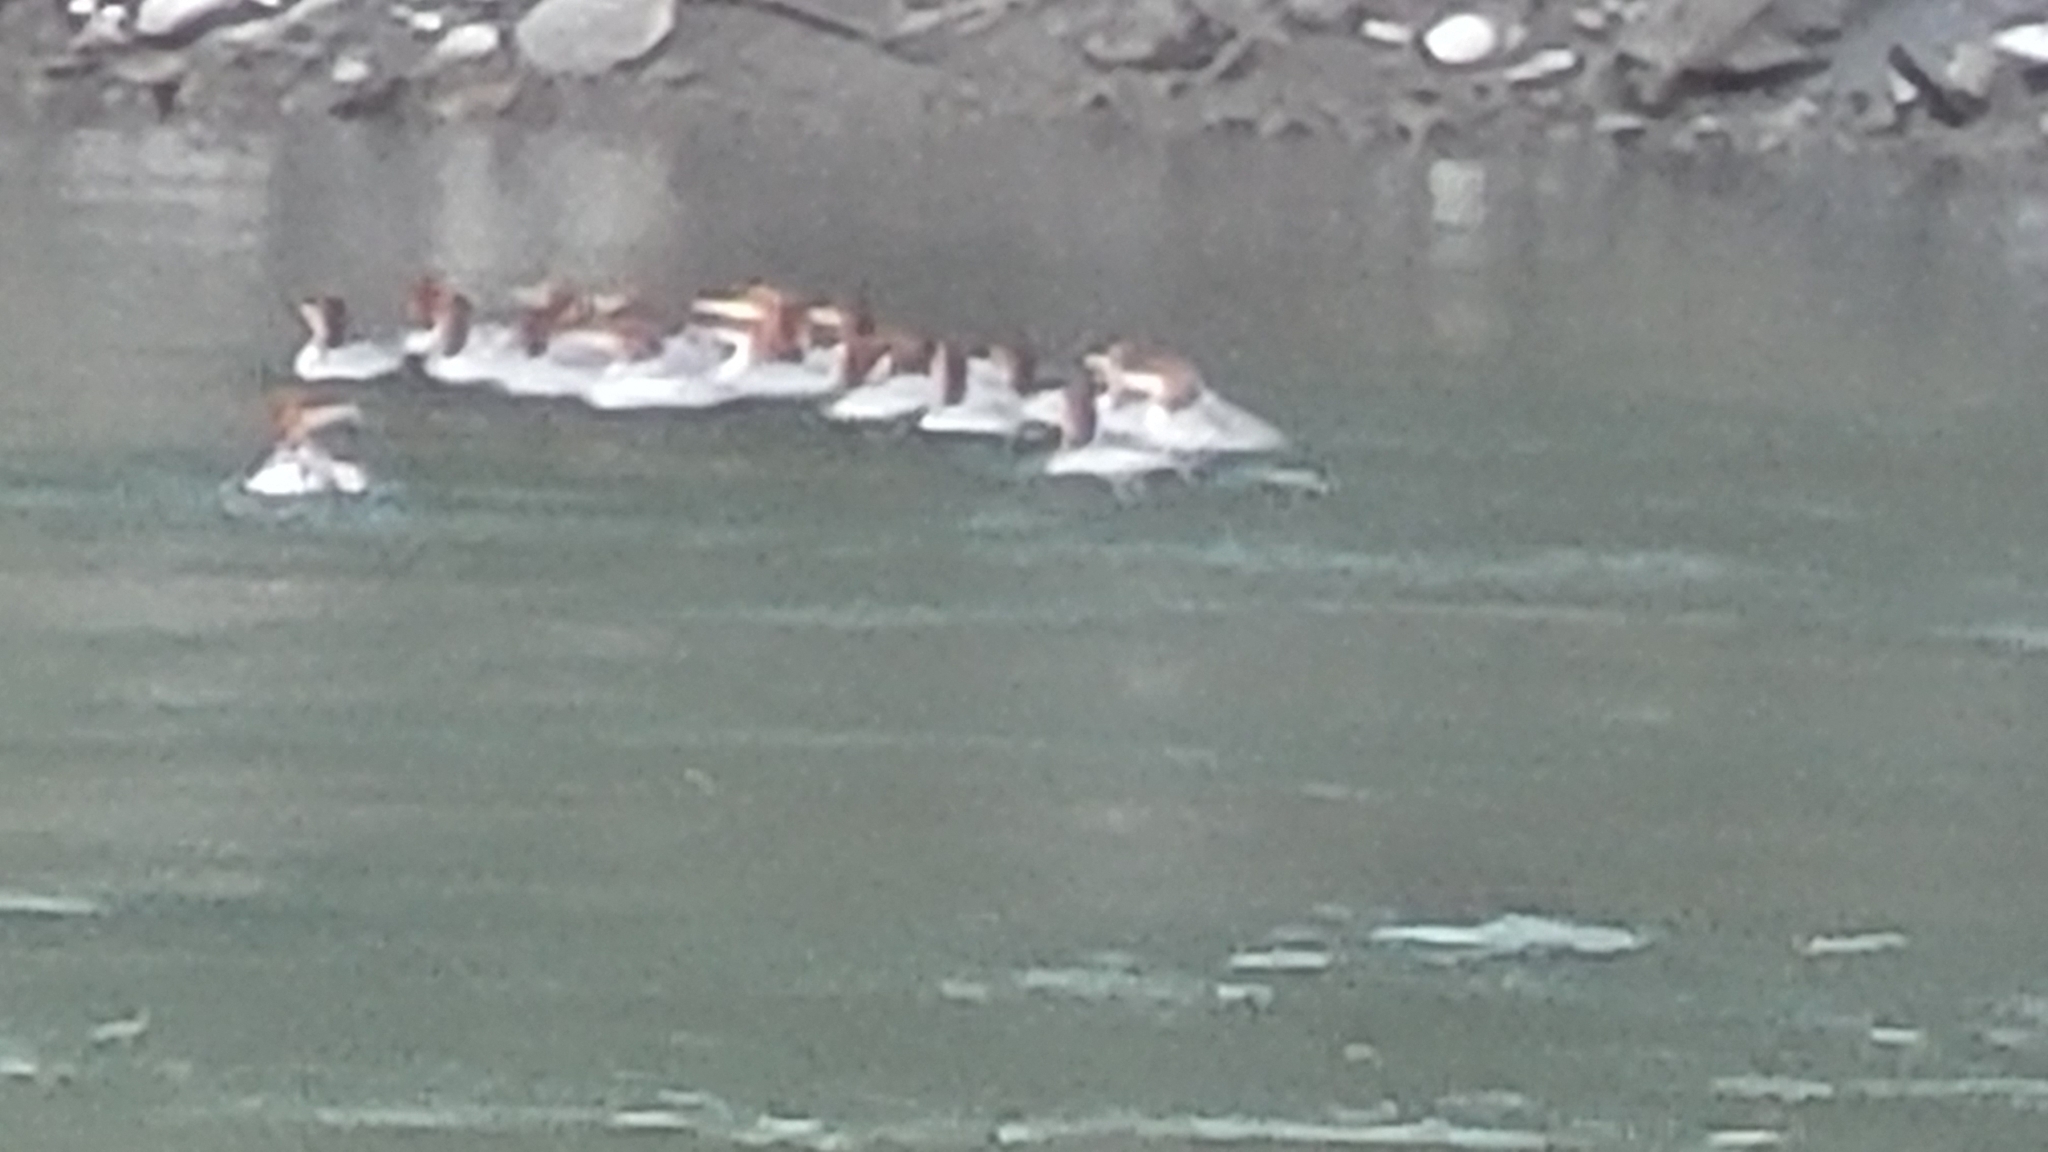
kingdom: Animalia
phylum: Chordata
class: Aves
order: Anseriformes
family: Anatidae
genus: Mergus
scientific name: Mergus merganser
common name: Common merganser
